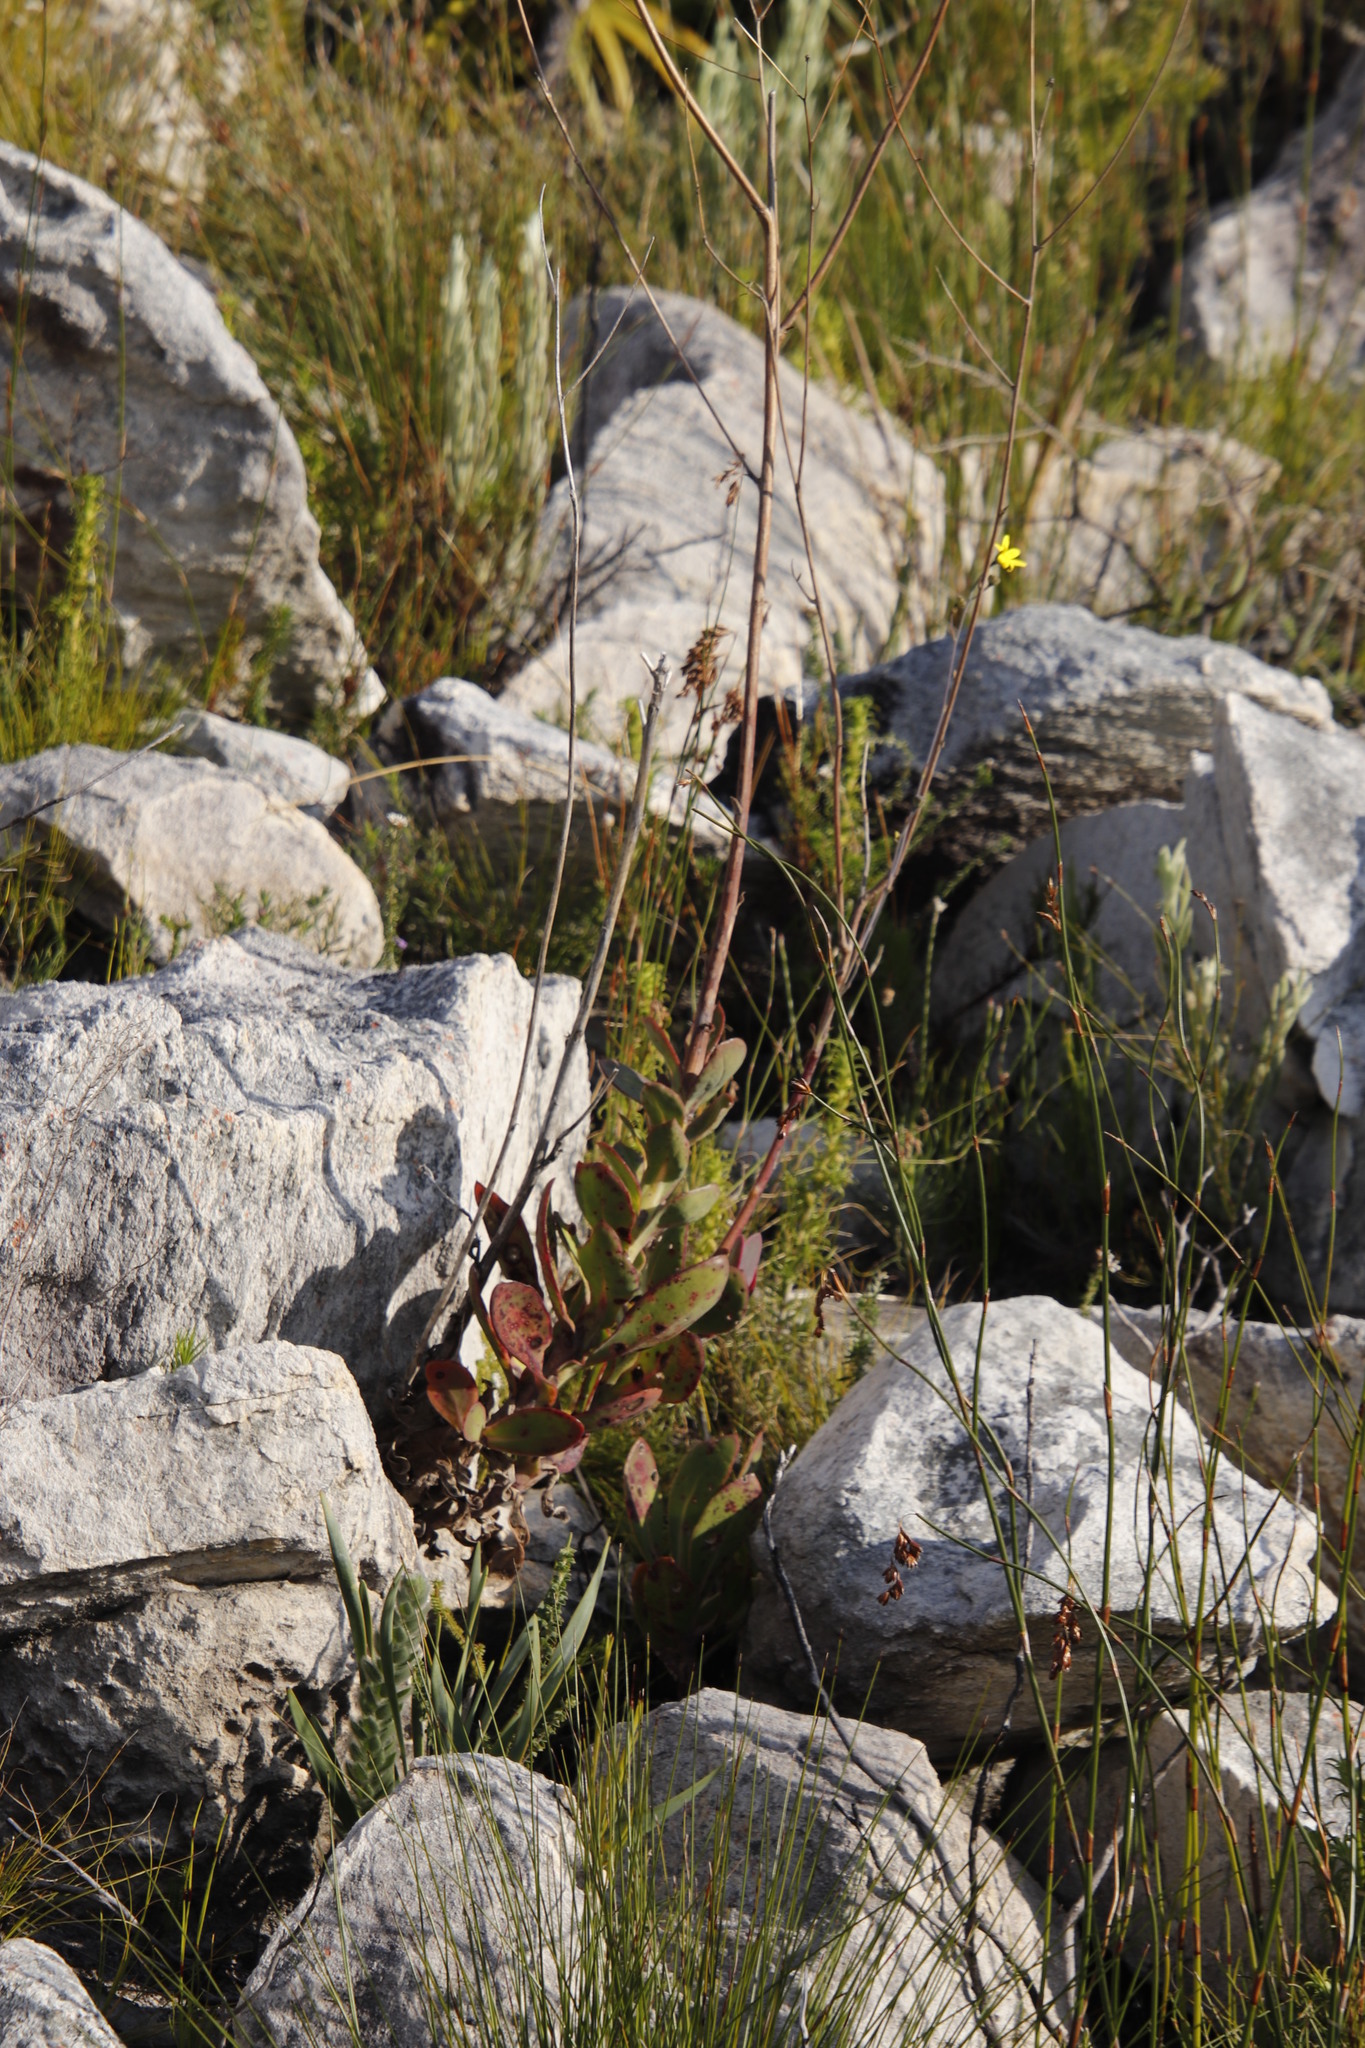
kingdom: Plantae
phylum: Tracheophyta
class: Magnoliopsida
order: Asterales
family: Asteraceae
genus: Othonna
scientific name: Othonna quinquedentata
